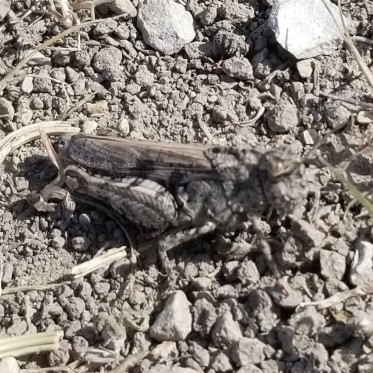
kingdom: Animalia
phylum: Arthropoda
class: Insecta
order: Orthoptera
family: Acrididae
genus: Chimarocephala
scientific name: Chimarocephala pacifica
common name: Painted meadow grasshopper
